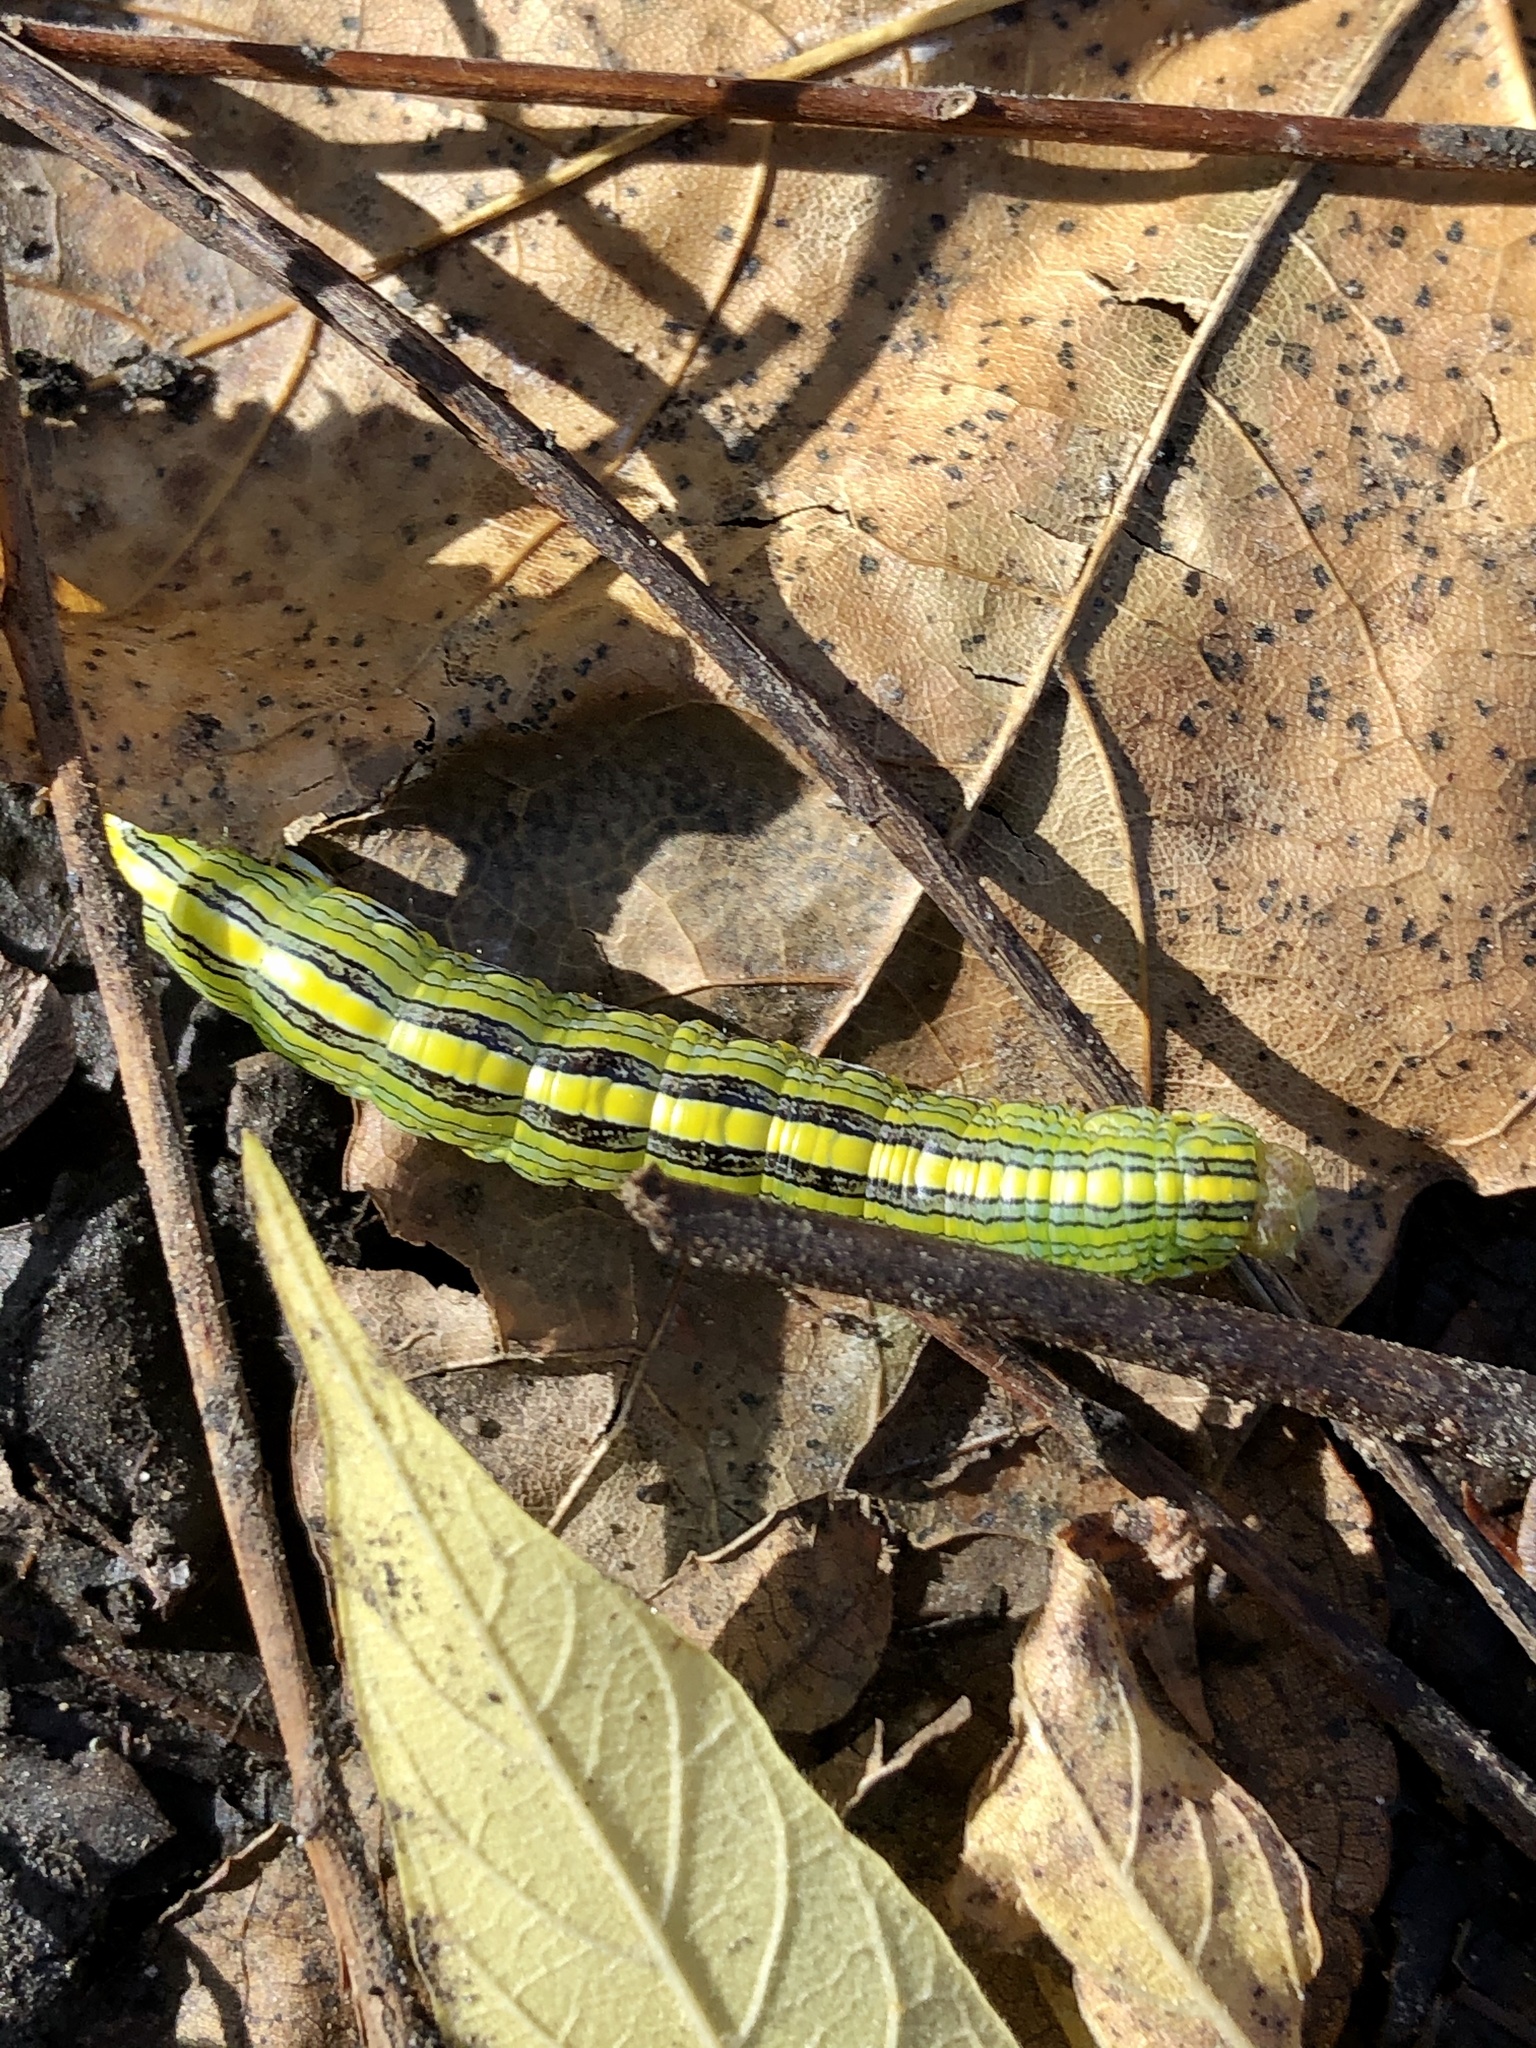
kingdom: Animalia
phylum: Arthropoda
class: Insecta
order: Lepidoptera
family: Noctuidae
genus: Cucullia
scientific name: Cucullia asteroides
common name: Asteroid moth
